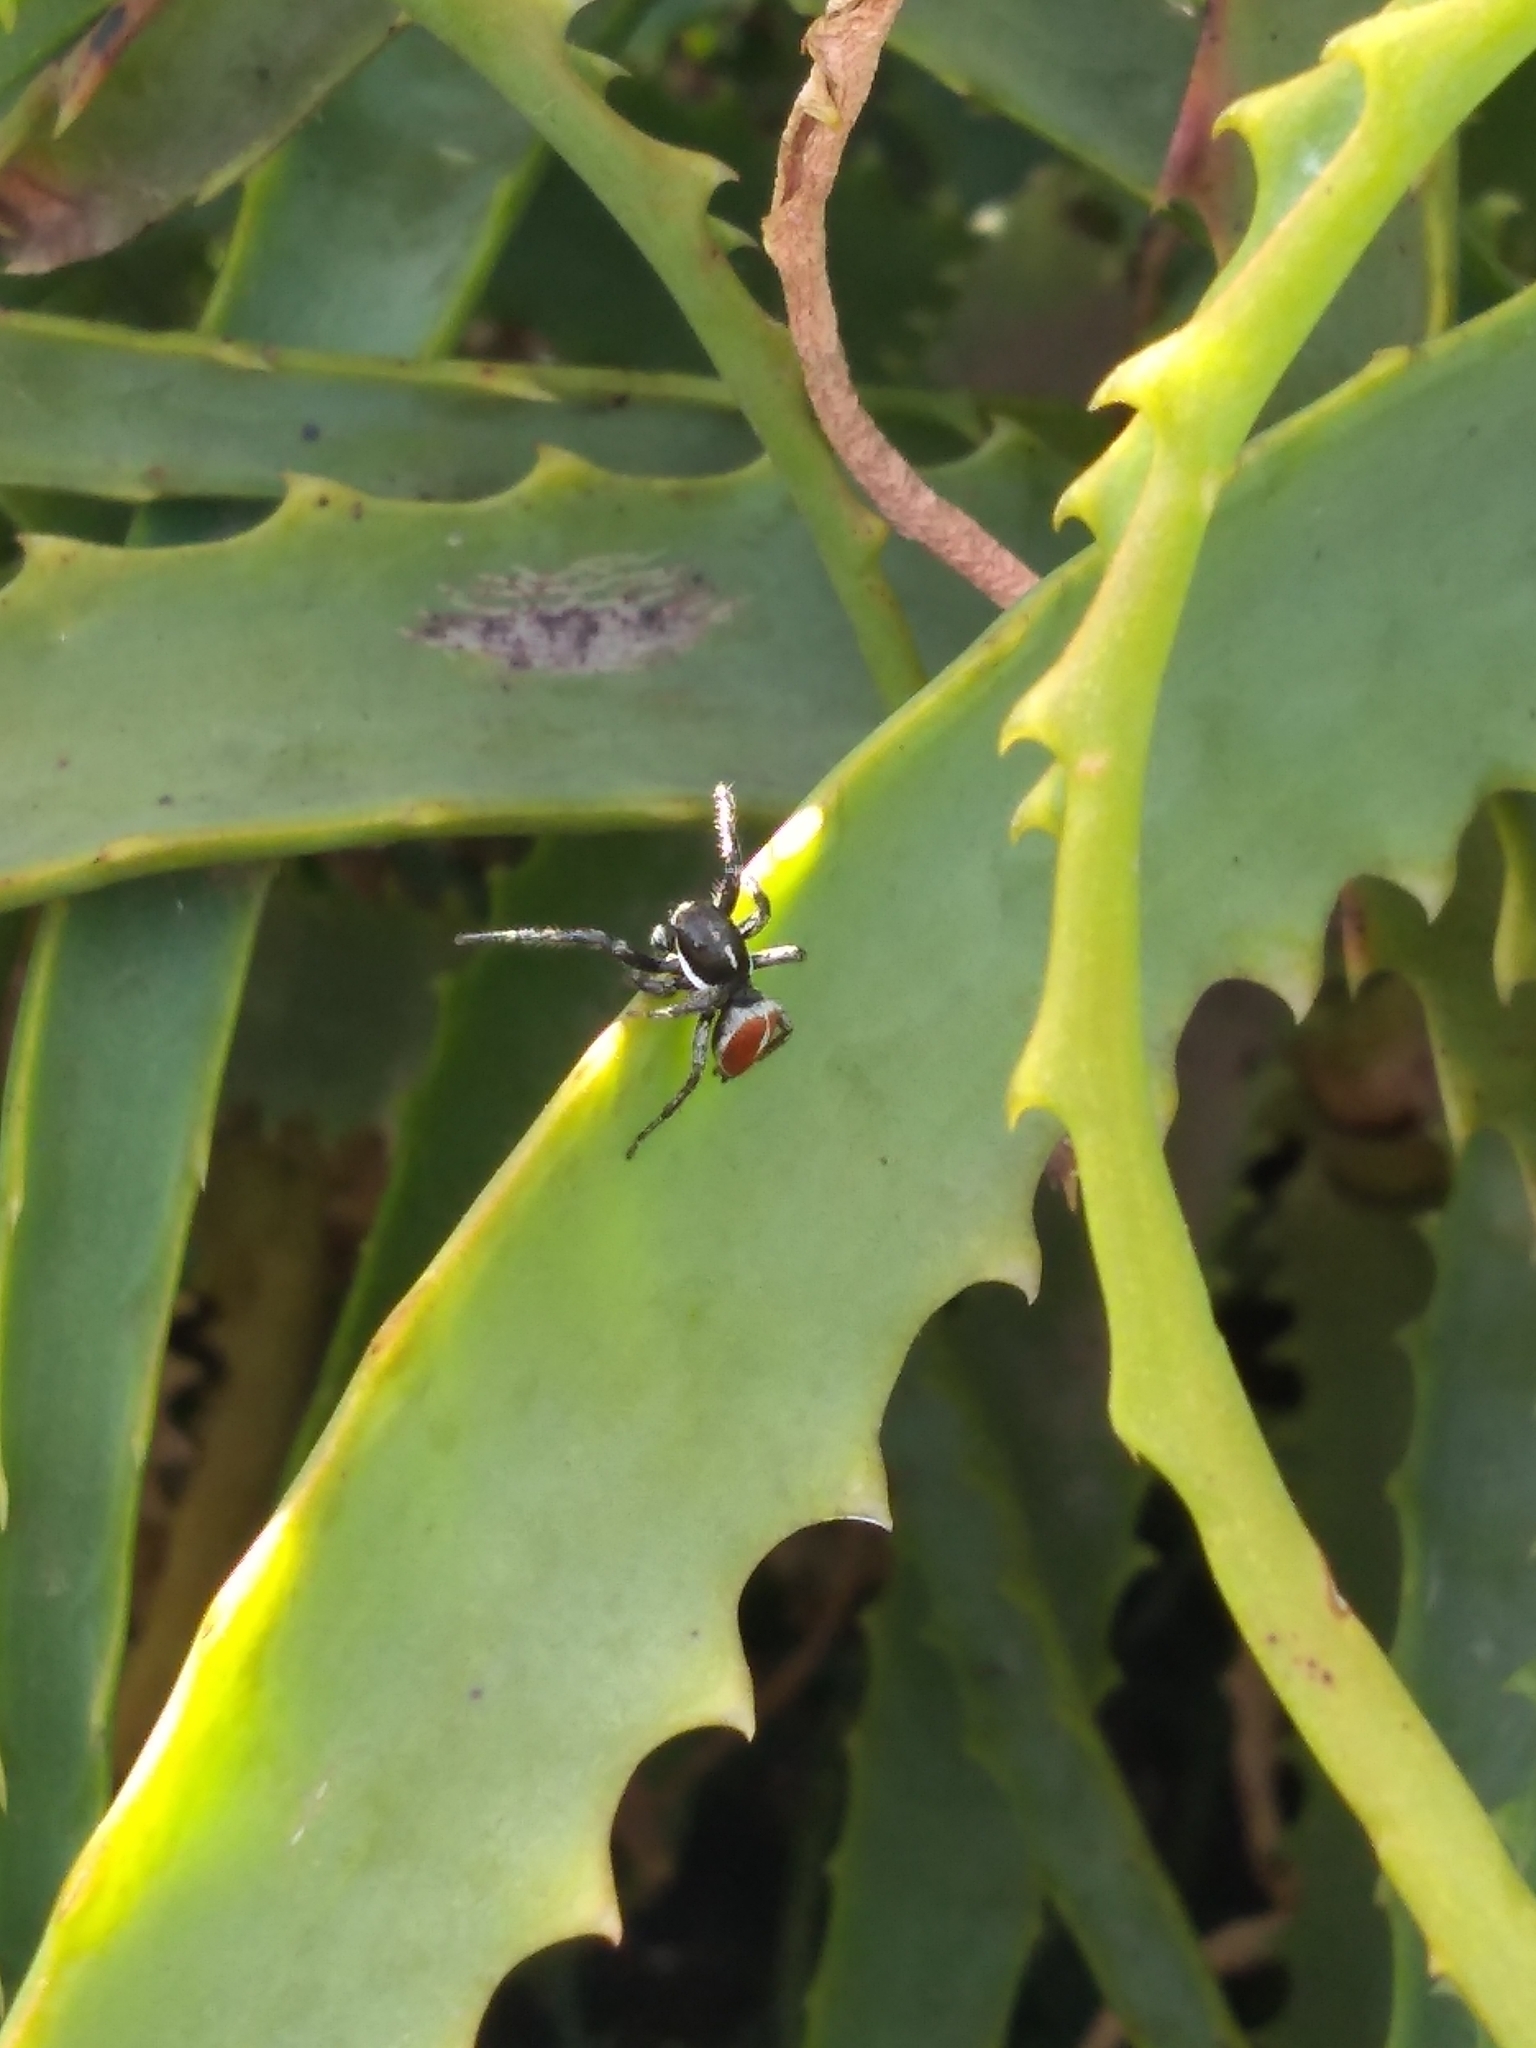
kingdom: Animalia
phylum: Arthropoda
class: Arachnida
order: Araneae
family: Salticidae
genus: Phiale
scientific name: Phiale roburifoliata
